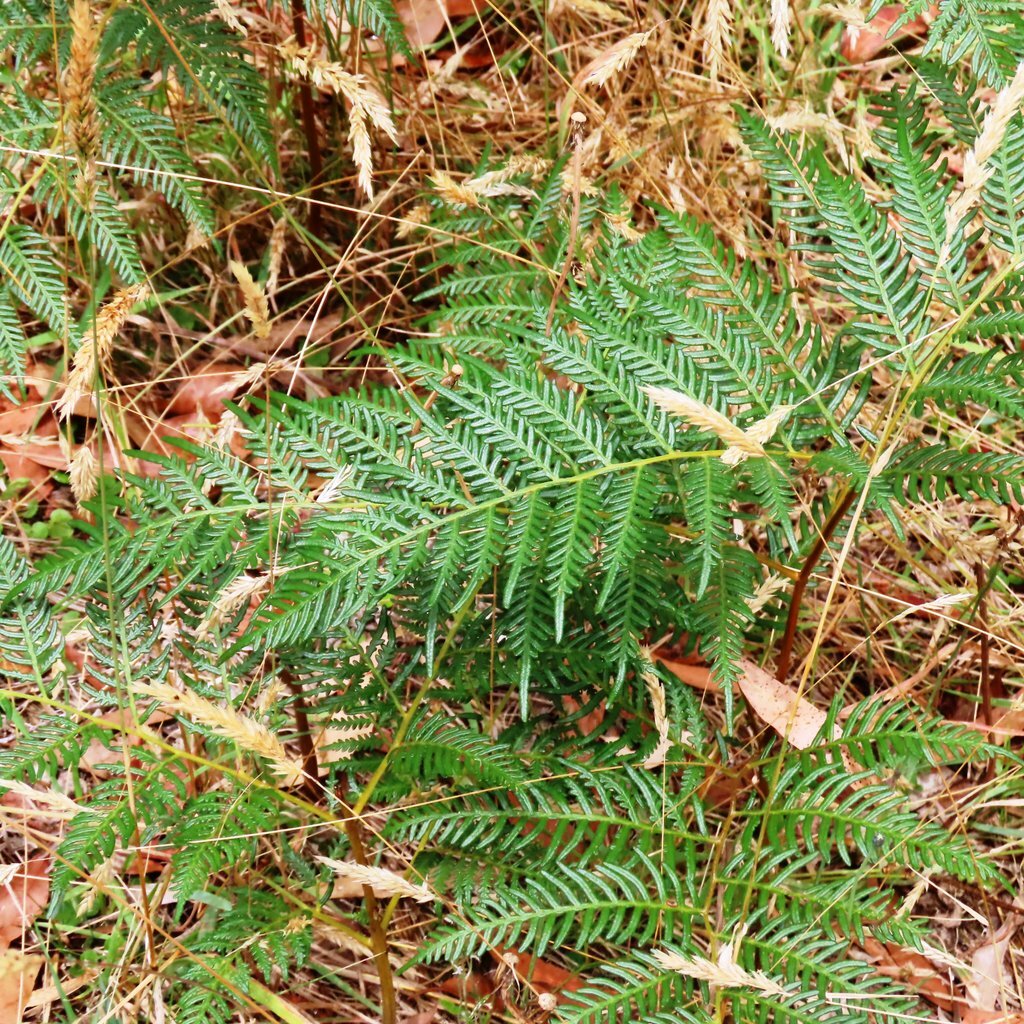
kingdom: Plantae
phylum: Tracheophyta
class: Polypodiopsida
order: Polypodiales
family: Dennstaedtiaceae
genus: Pteridium
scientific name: Pteridium esculentum
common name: Bracken fern
